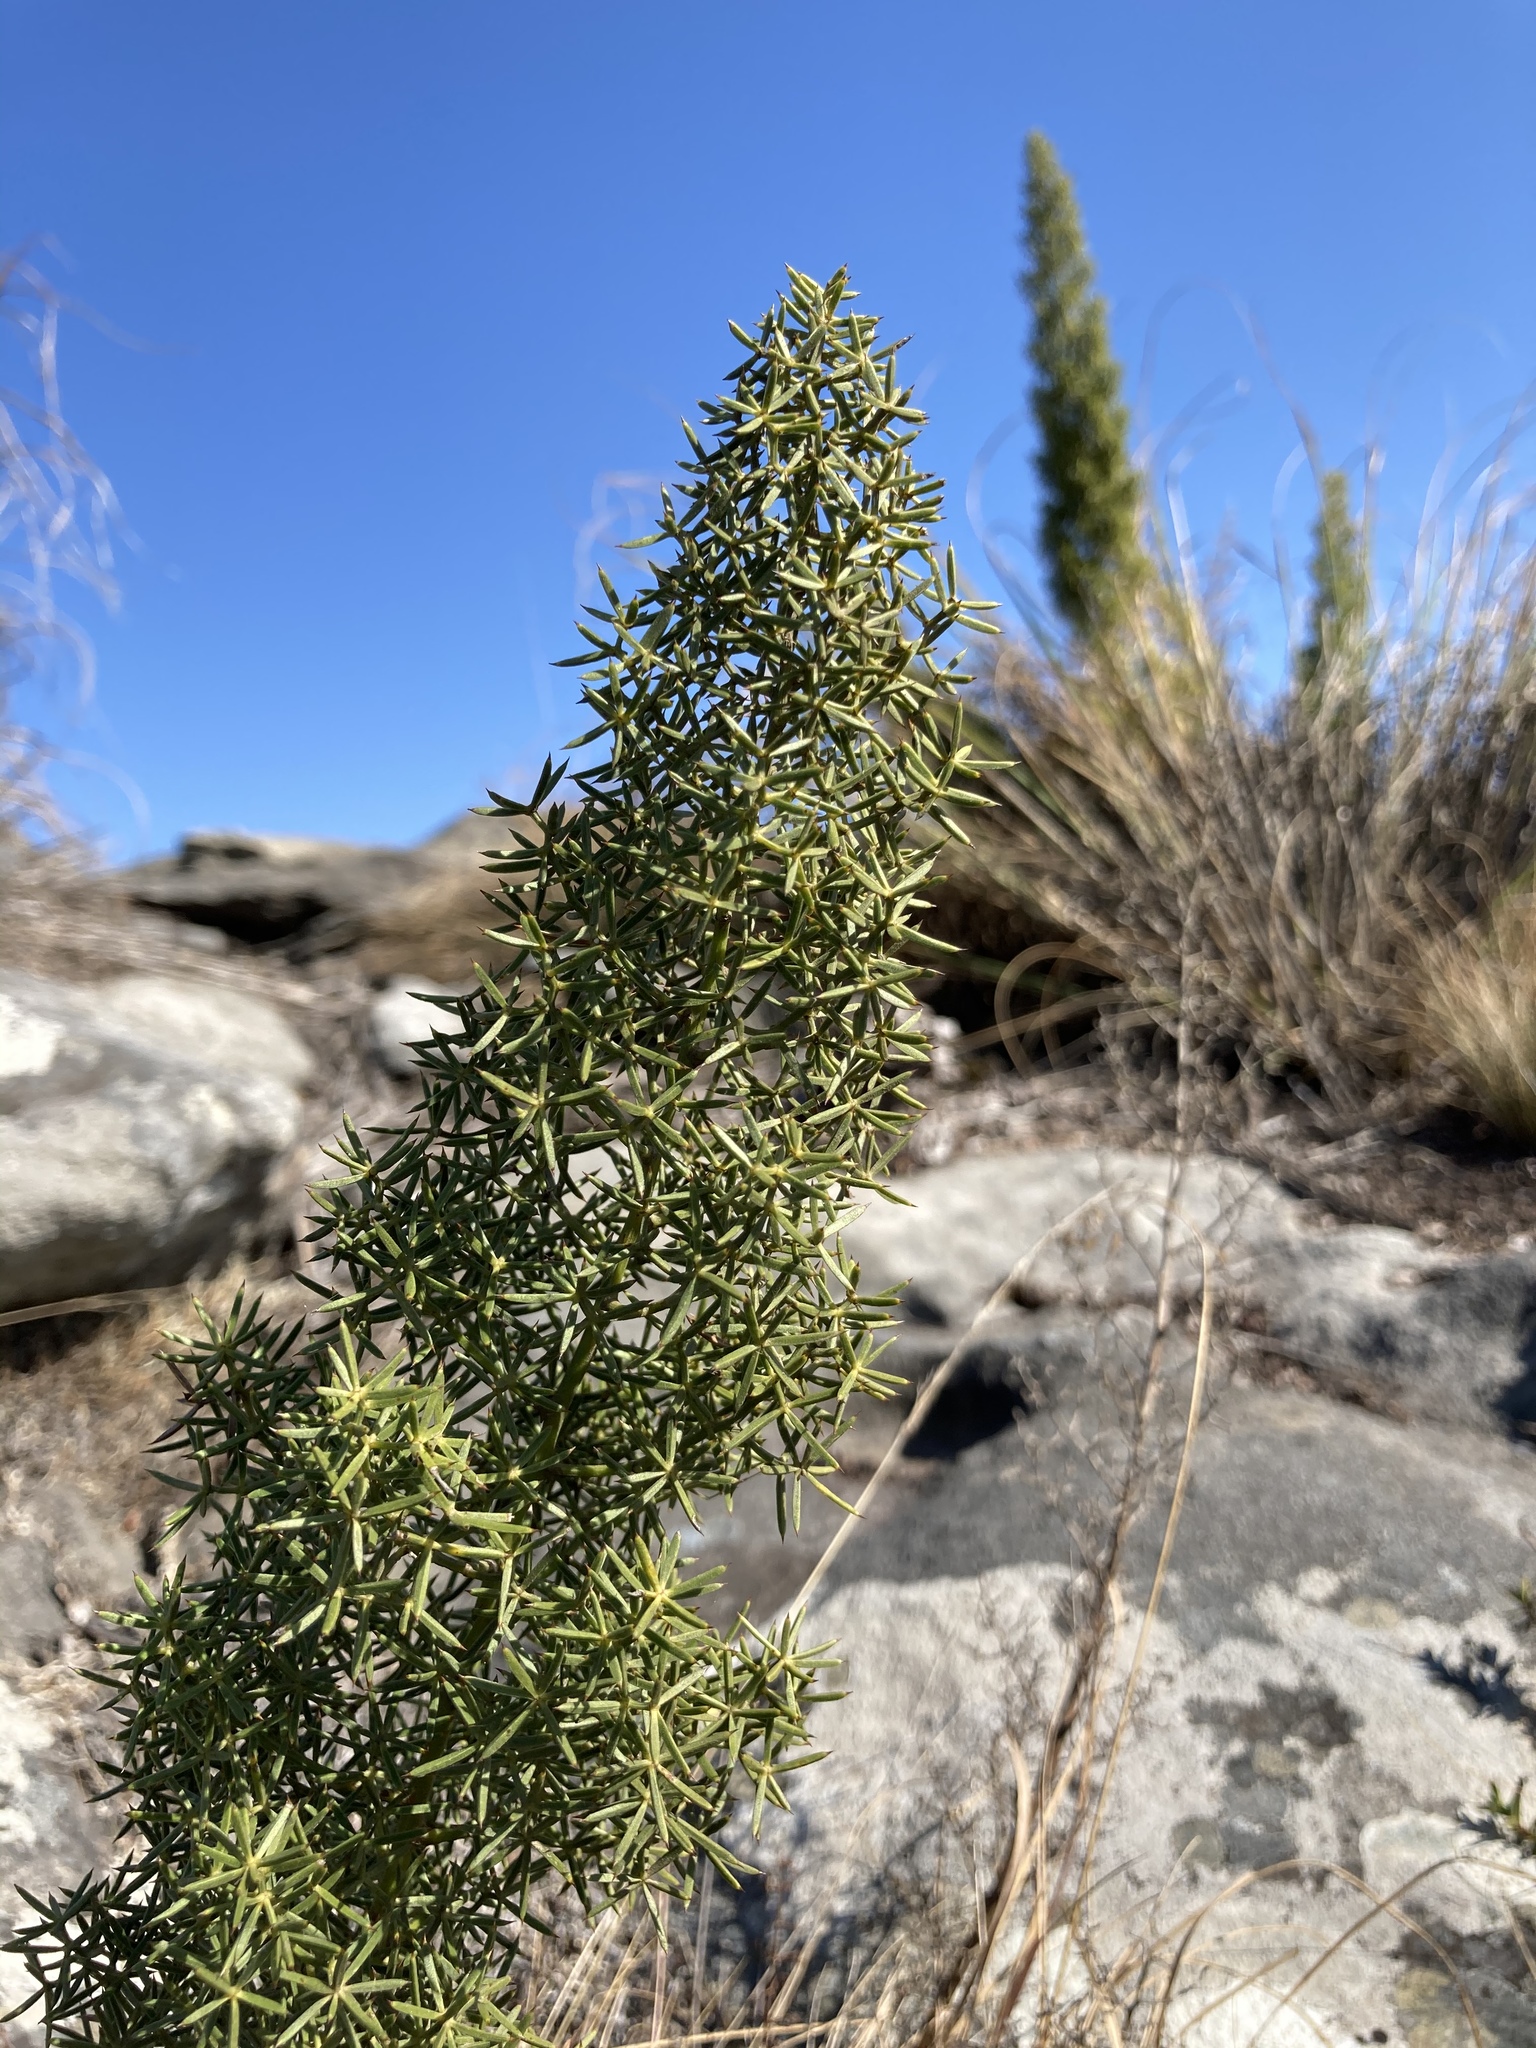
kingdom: Plantae
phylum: Tracheophyta
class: Liliopsida
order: Asparagales
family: Asparagaceae
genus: Asparagus
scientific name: Asparagus rigidus
